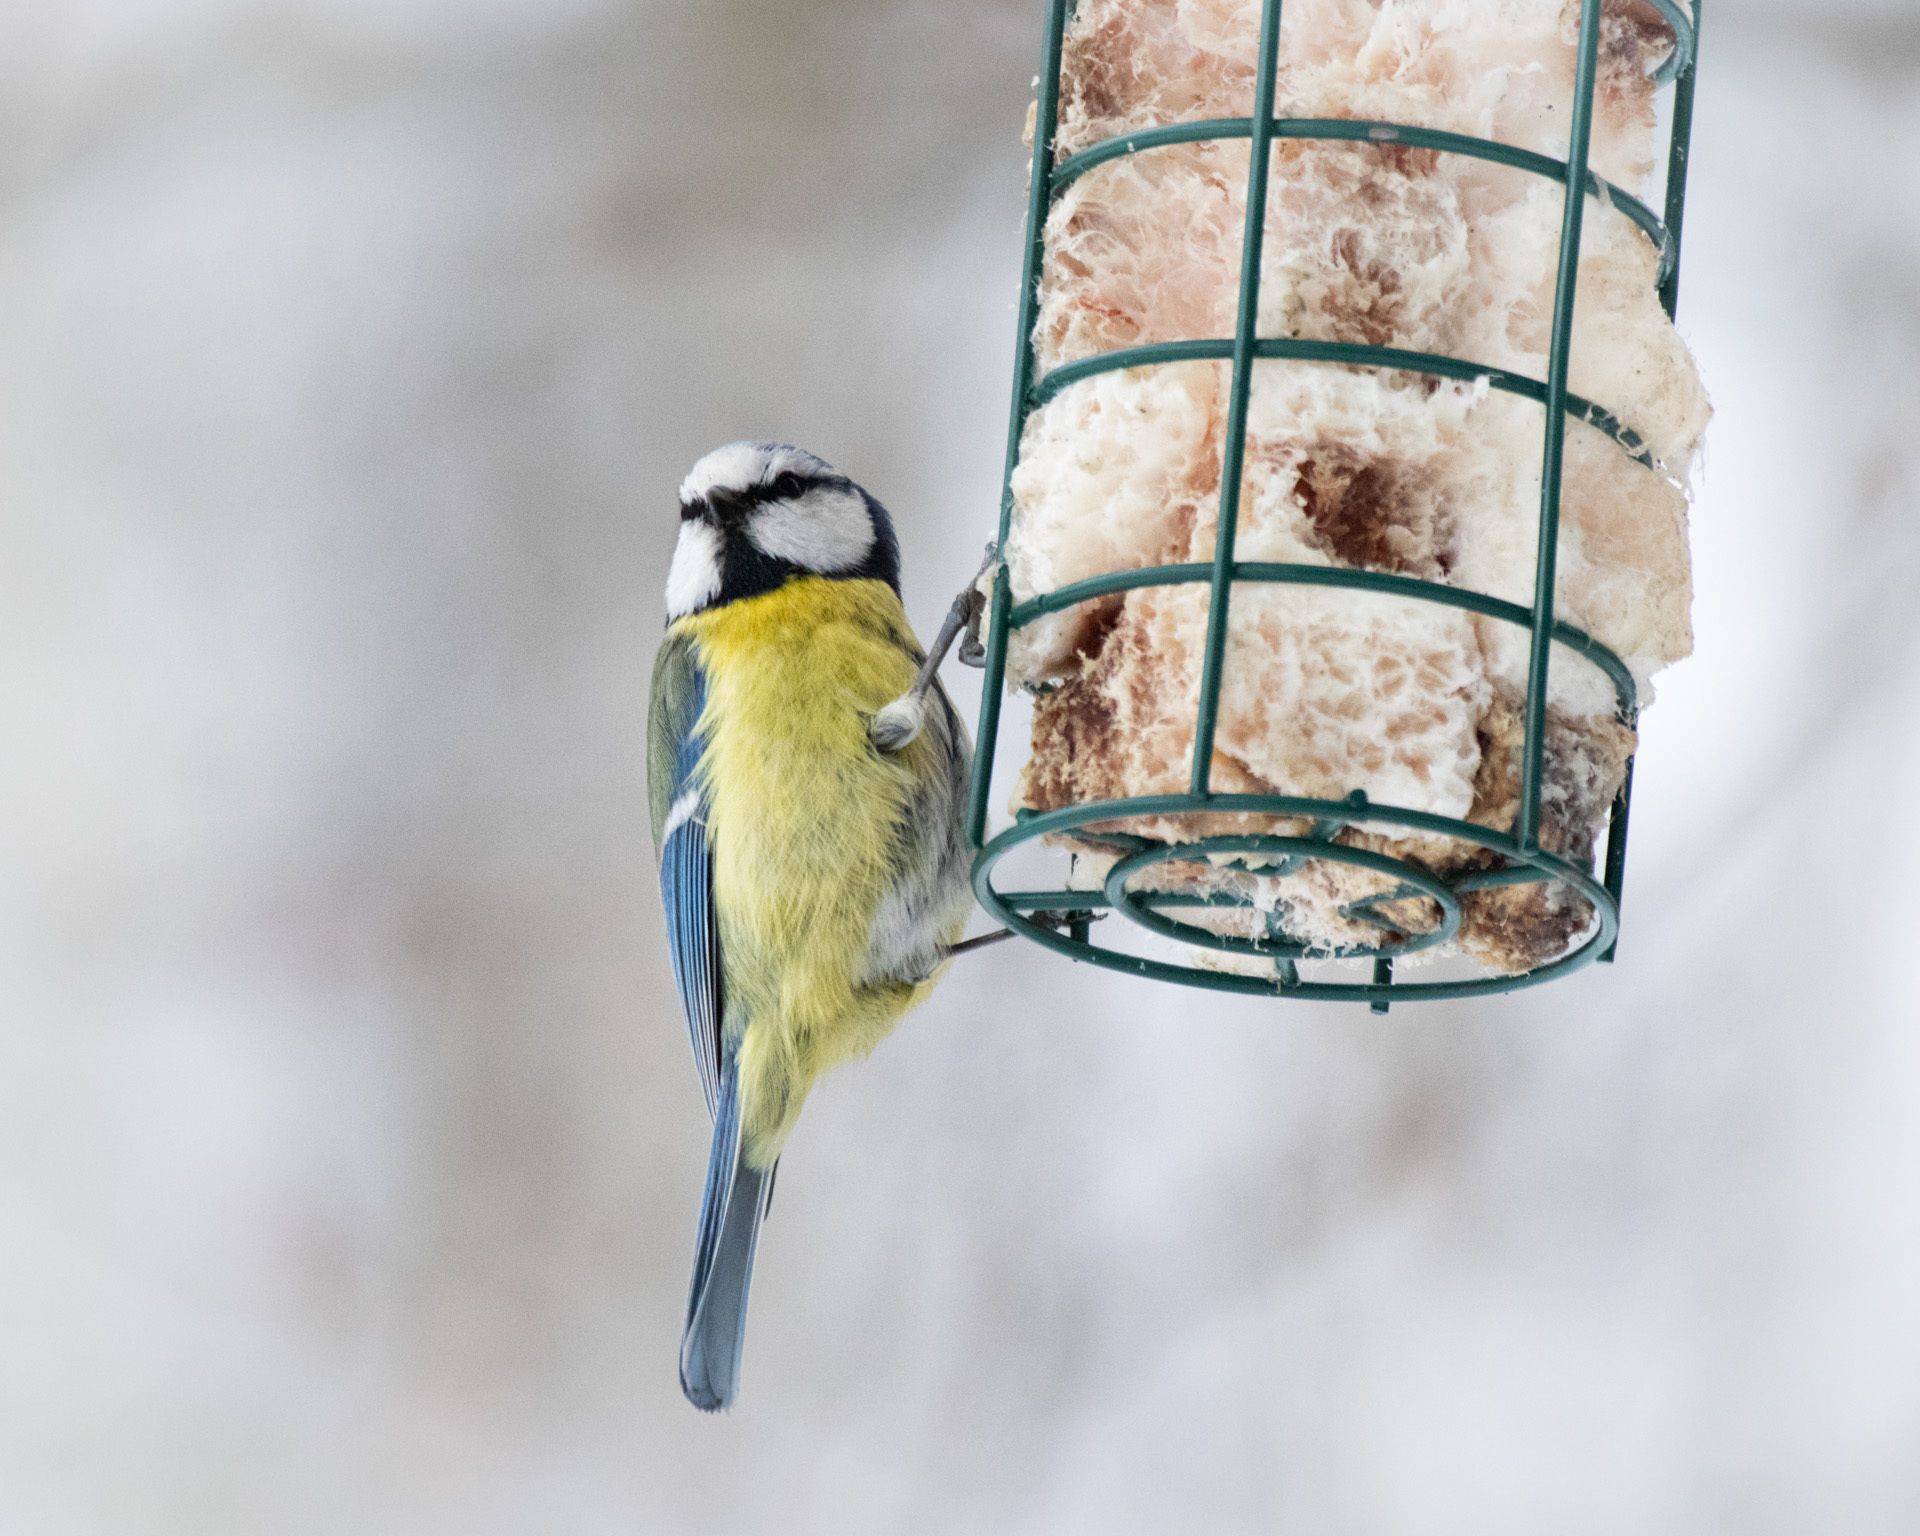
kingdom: Animalia
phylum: Chordata
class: Aves
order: Passeriformes
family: Paridae
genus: Cyanistes
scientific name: Cyanistes caeruleus
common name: Eurasian blue tit
